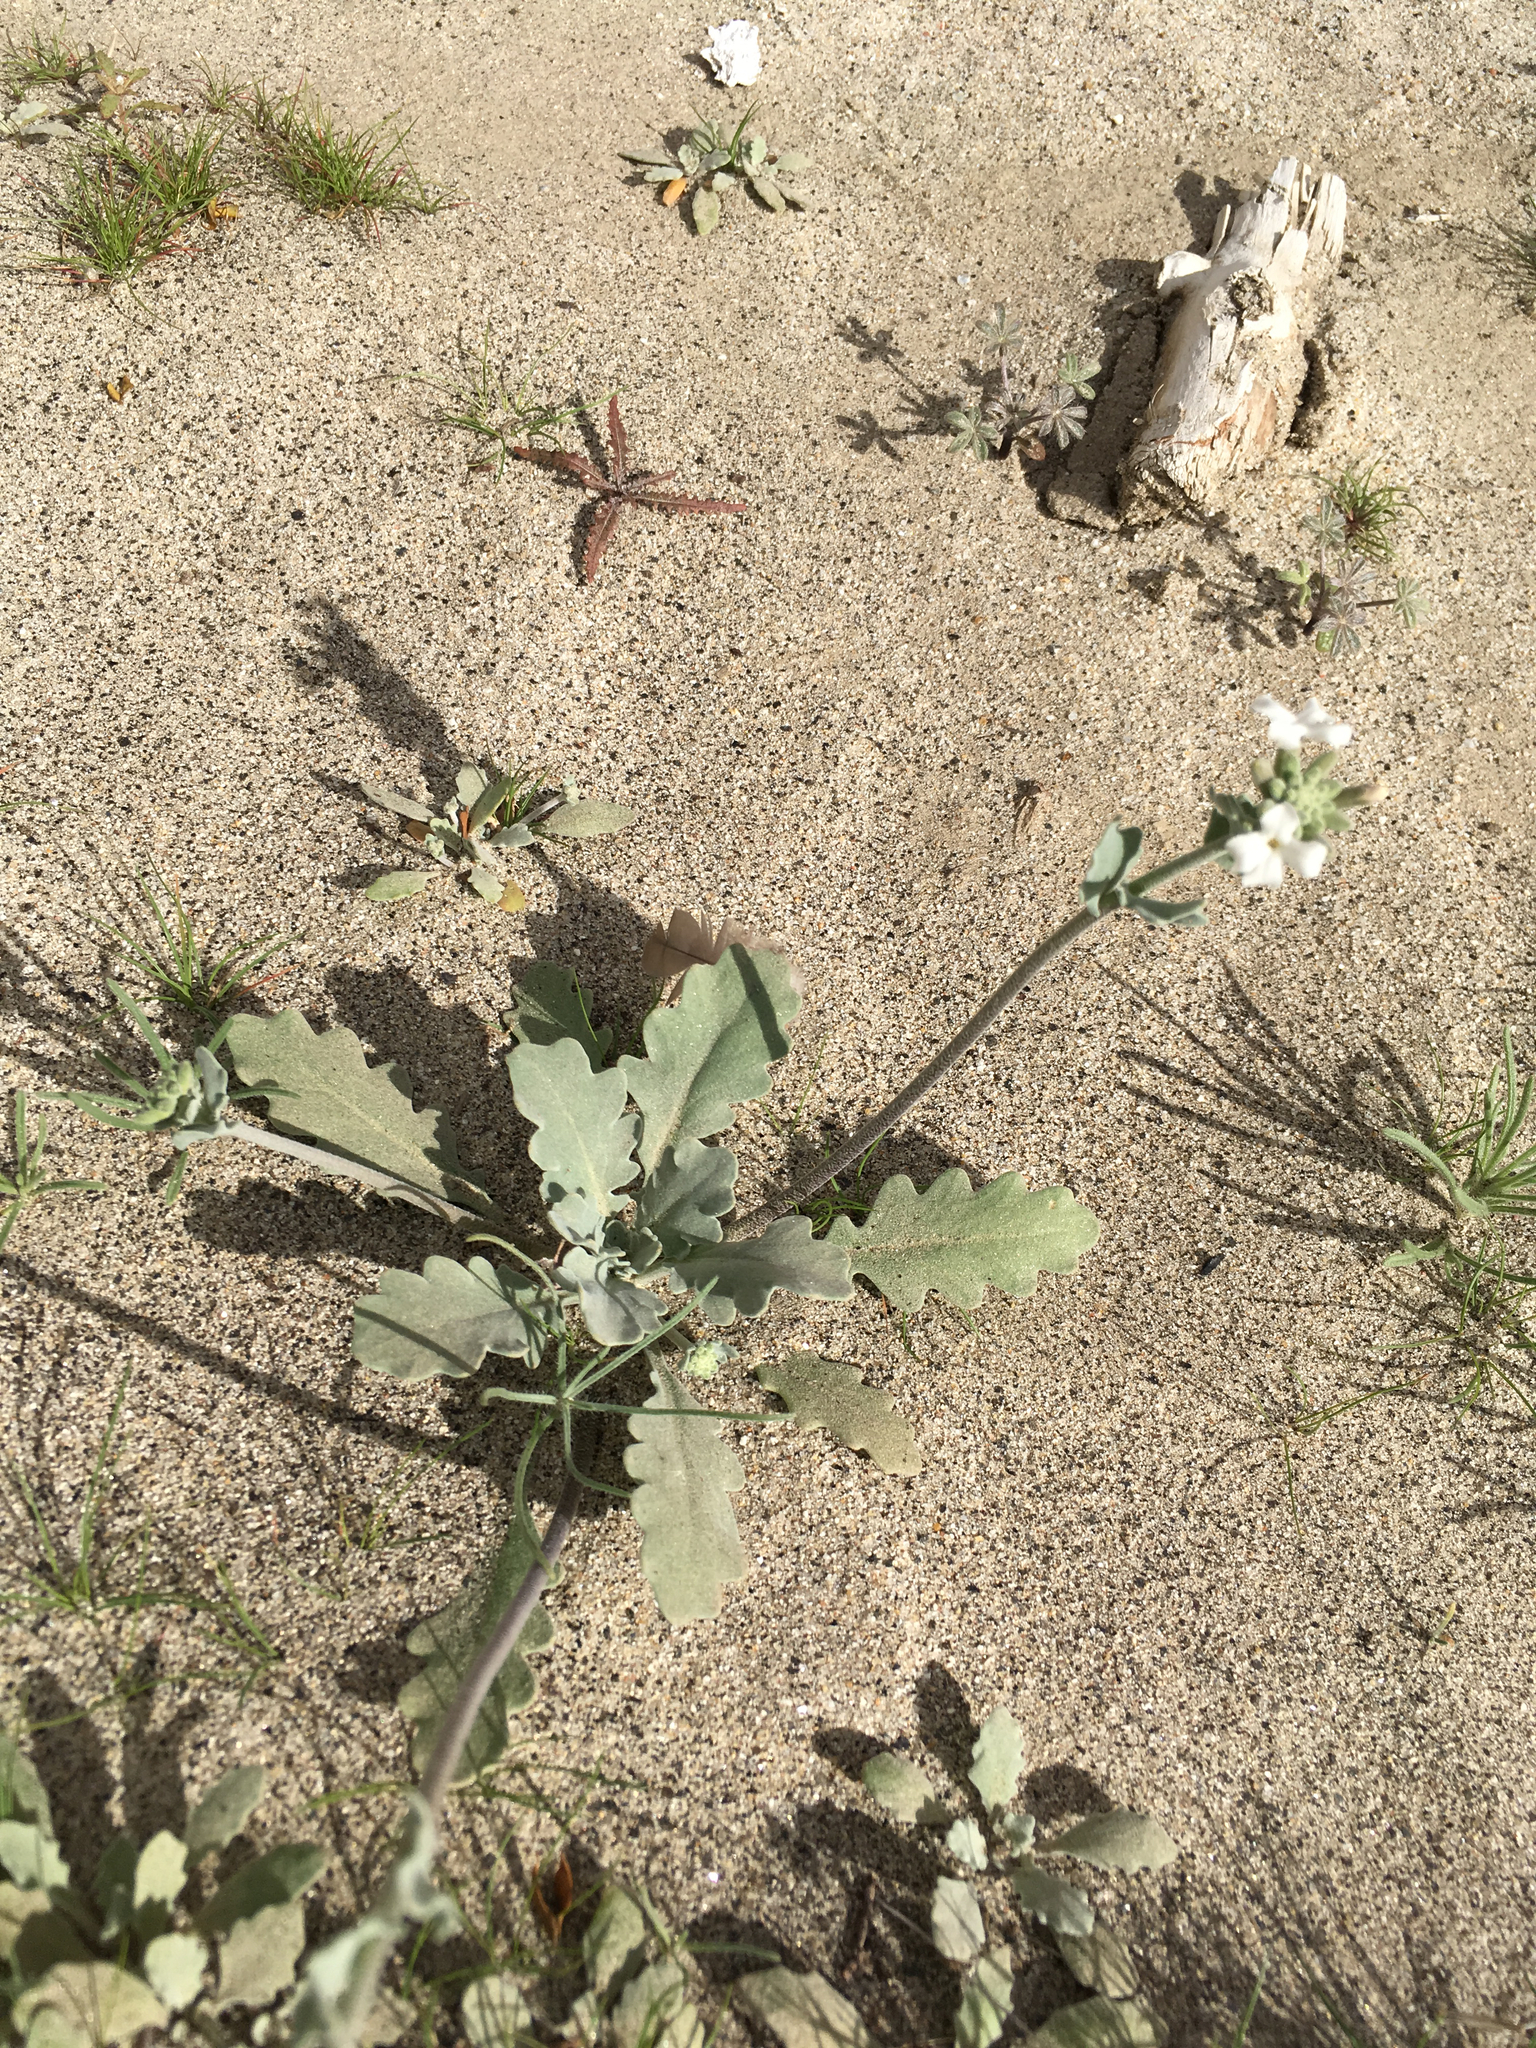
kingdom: Plantae
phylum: Tracheophyta
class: Magnoliopsida
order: Brassicales
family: Brassicaceae
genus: Dithyrea
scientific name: Dithyrea californica
